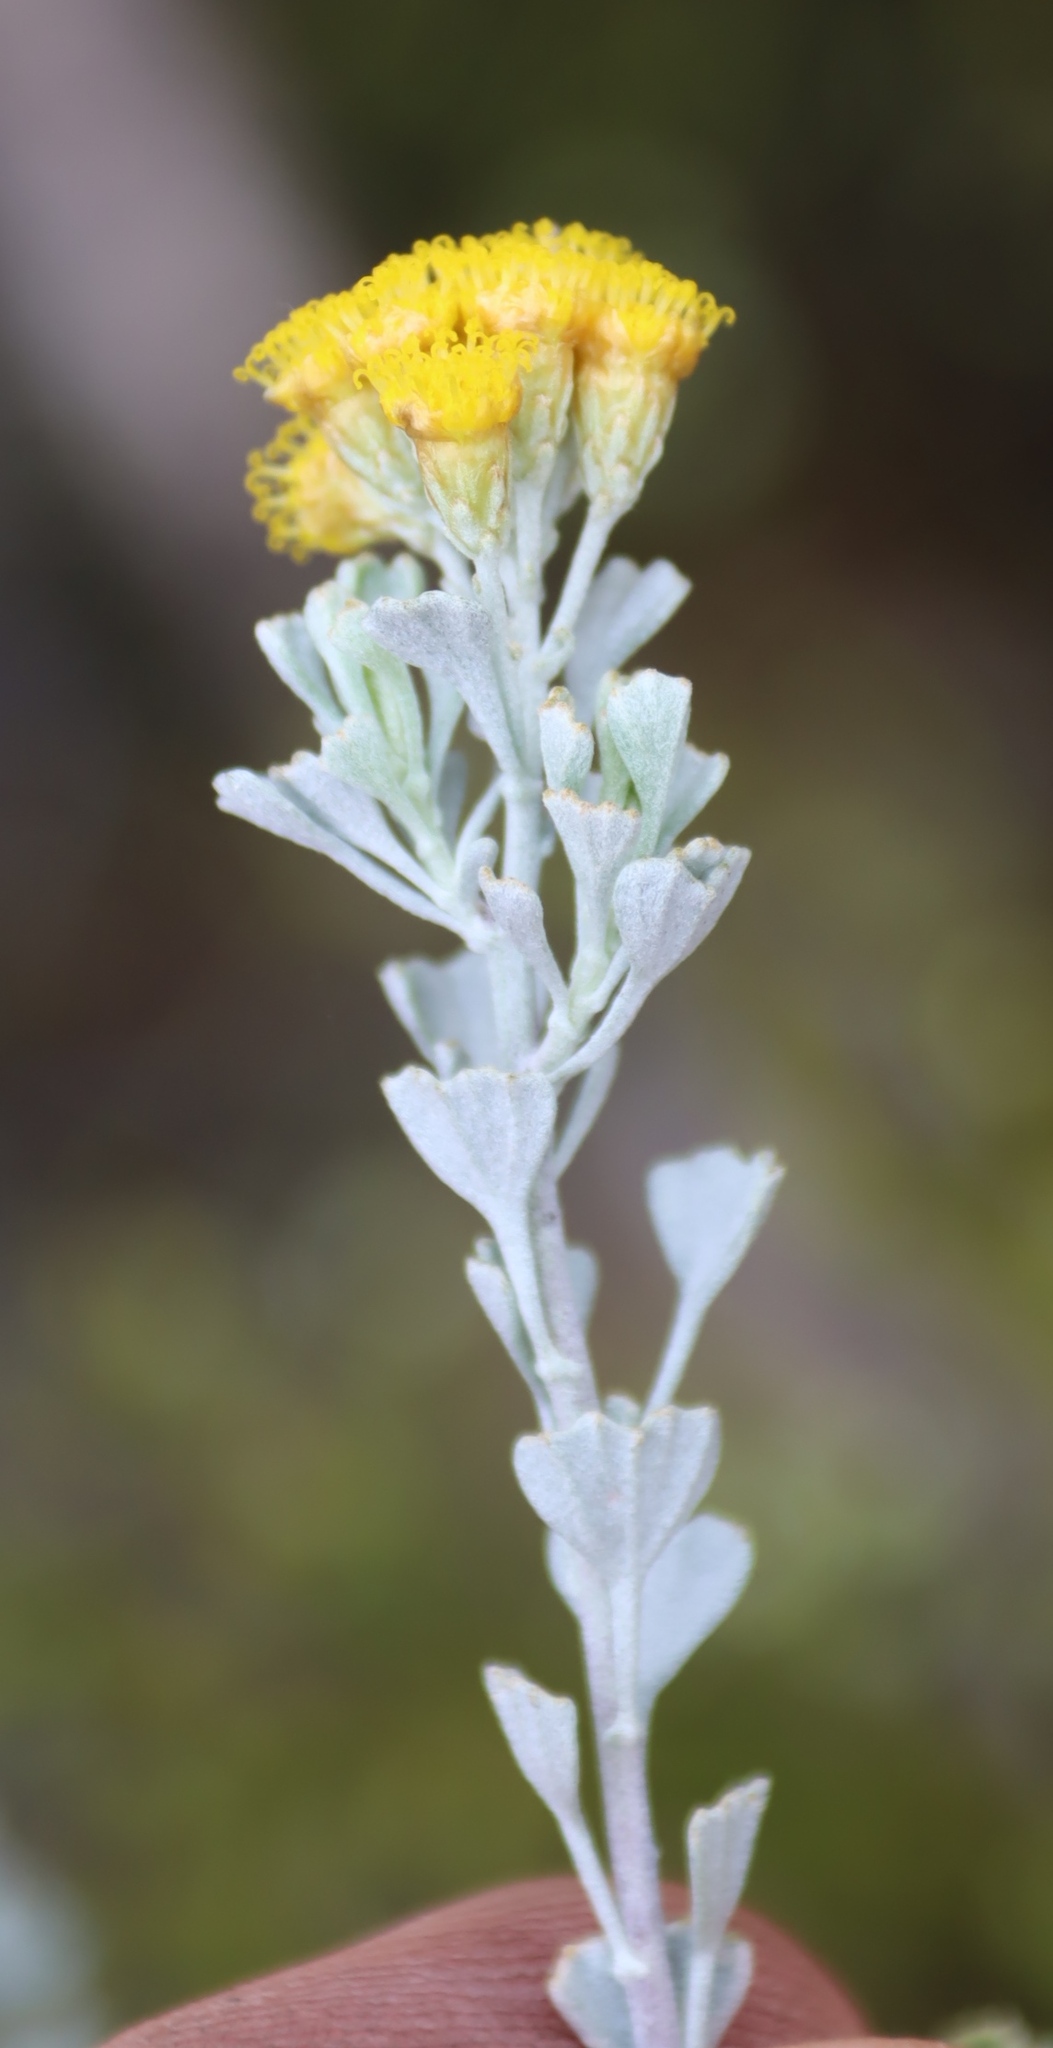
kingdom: Plantae
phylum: Tracheophyta
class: Magnoliopsida
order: Asterales
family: Asteraceae
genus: Pentzia
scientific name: Pentzia dentata
